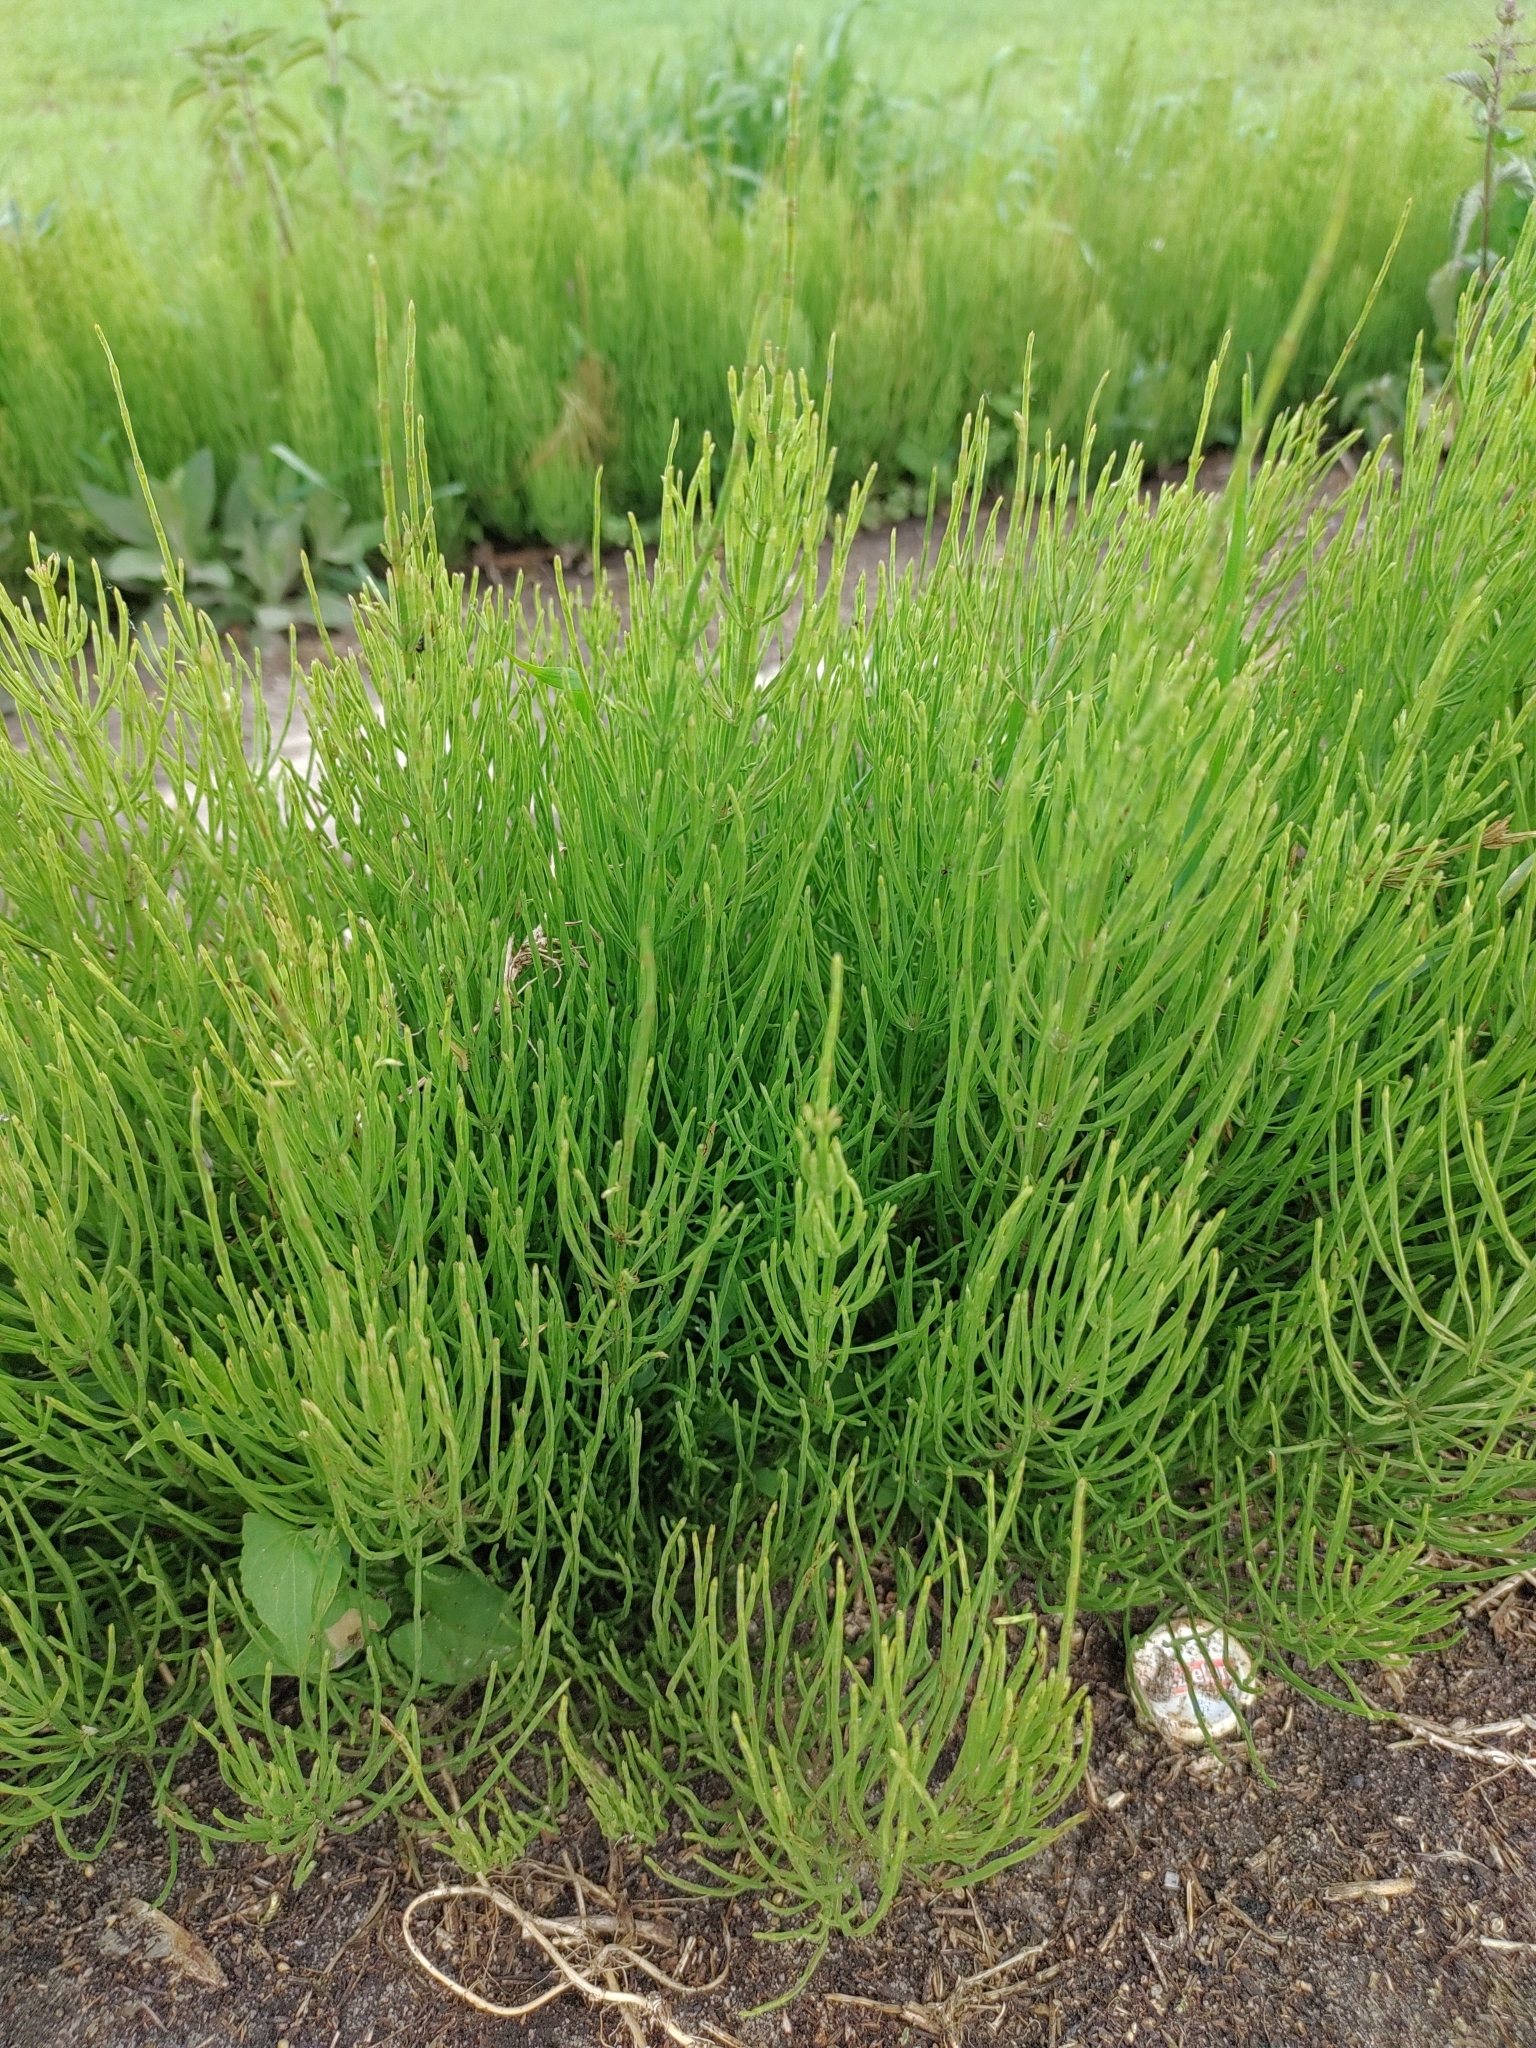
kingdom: Plantae
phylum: Tracheophyta
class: Polypodiopsida
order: Equisetales
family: Equisetaceae
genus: Equisetum
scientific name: Equisetum arvense
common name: Field horsetail
